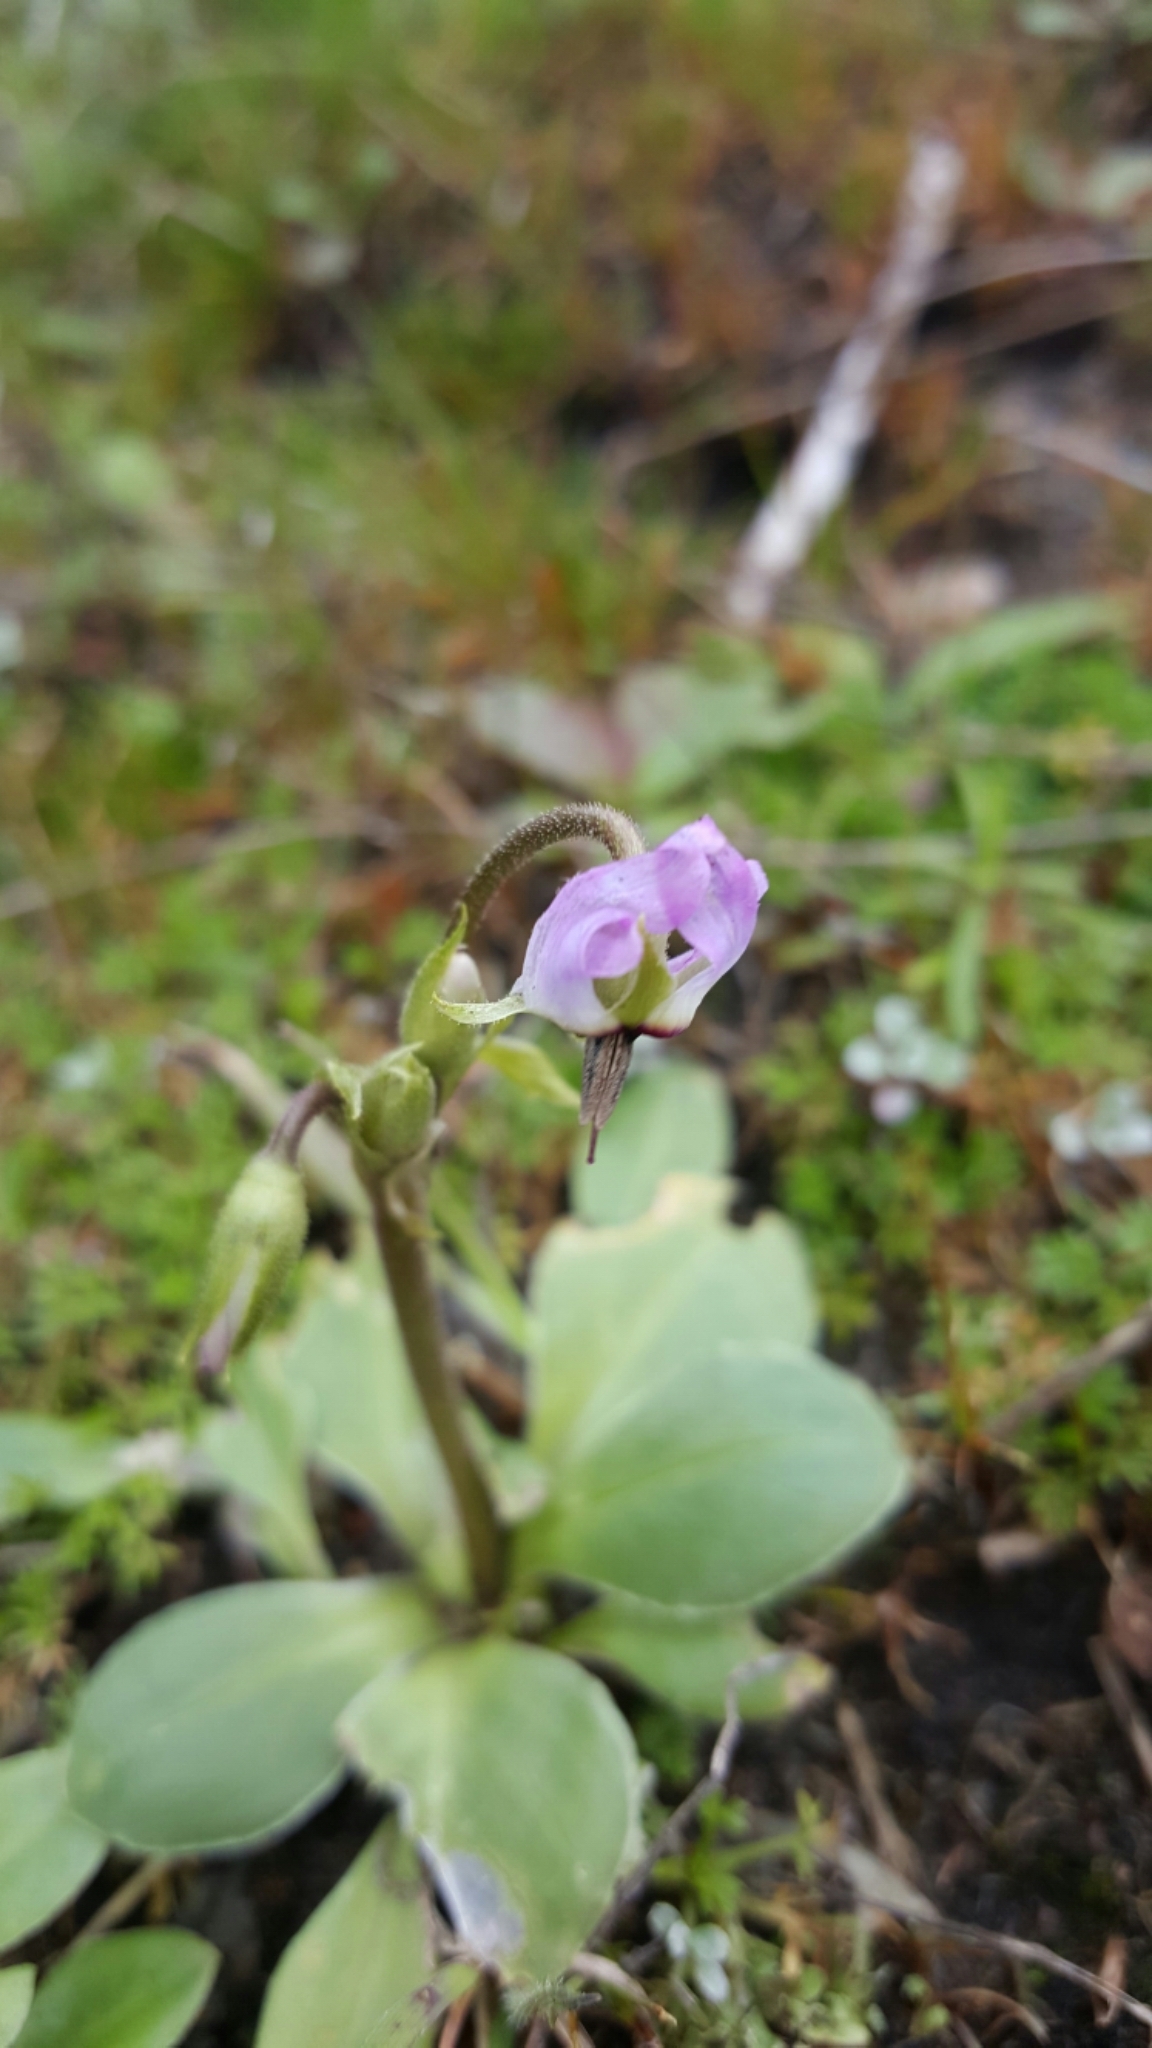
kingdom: Plantae
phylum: Tracheophyta
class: Magnoliopsida
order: Ericales
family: Primulaceae
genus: Dodecatheon
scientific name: Dodecatheon hendersonii
